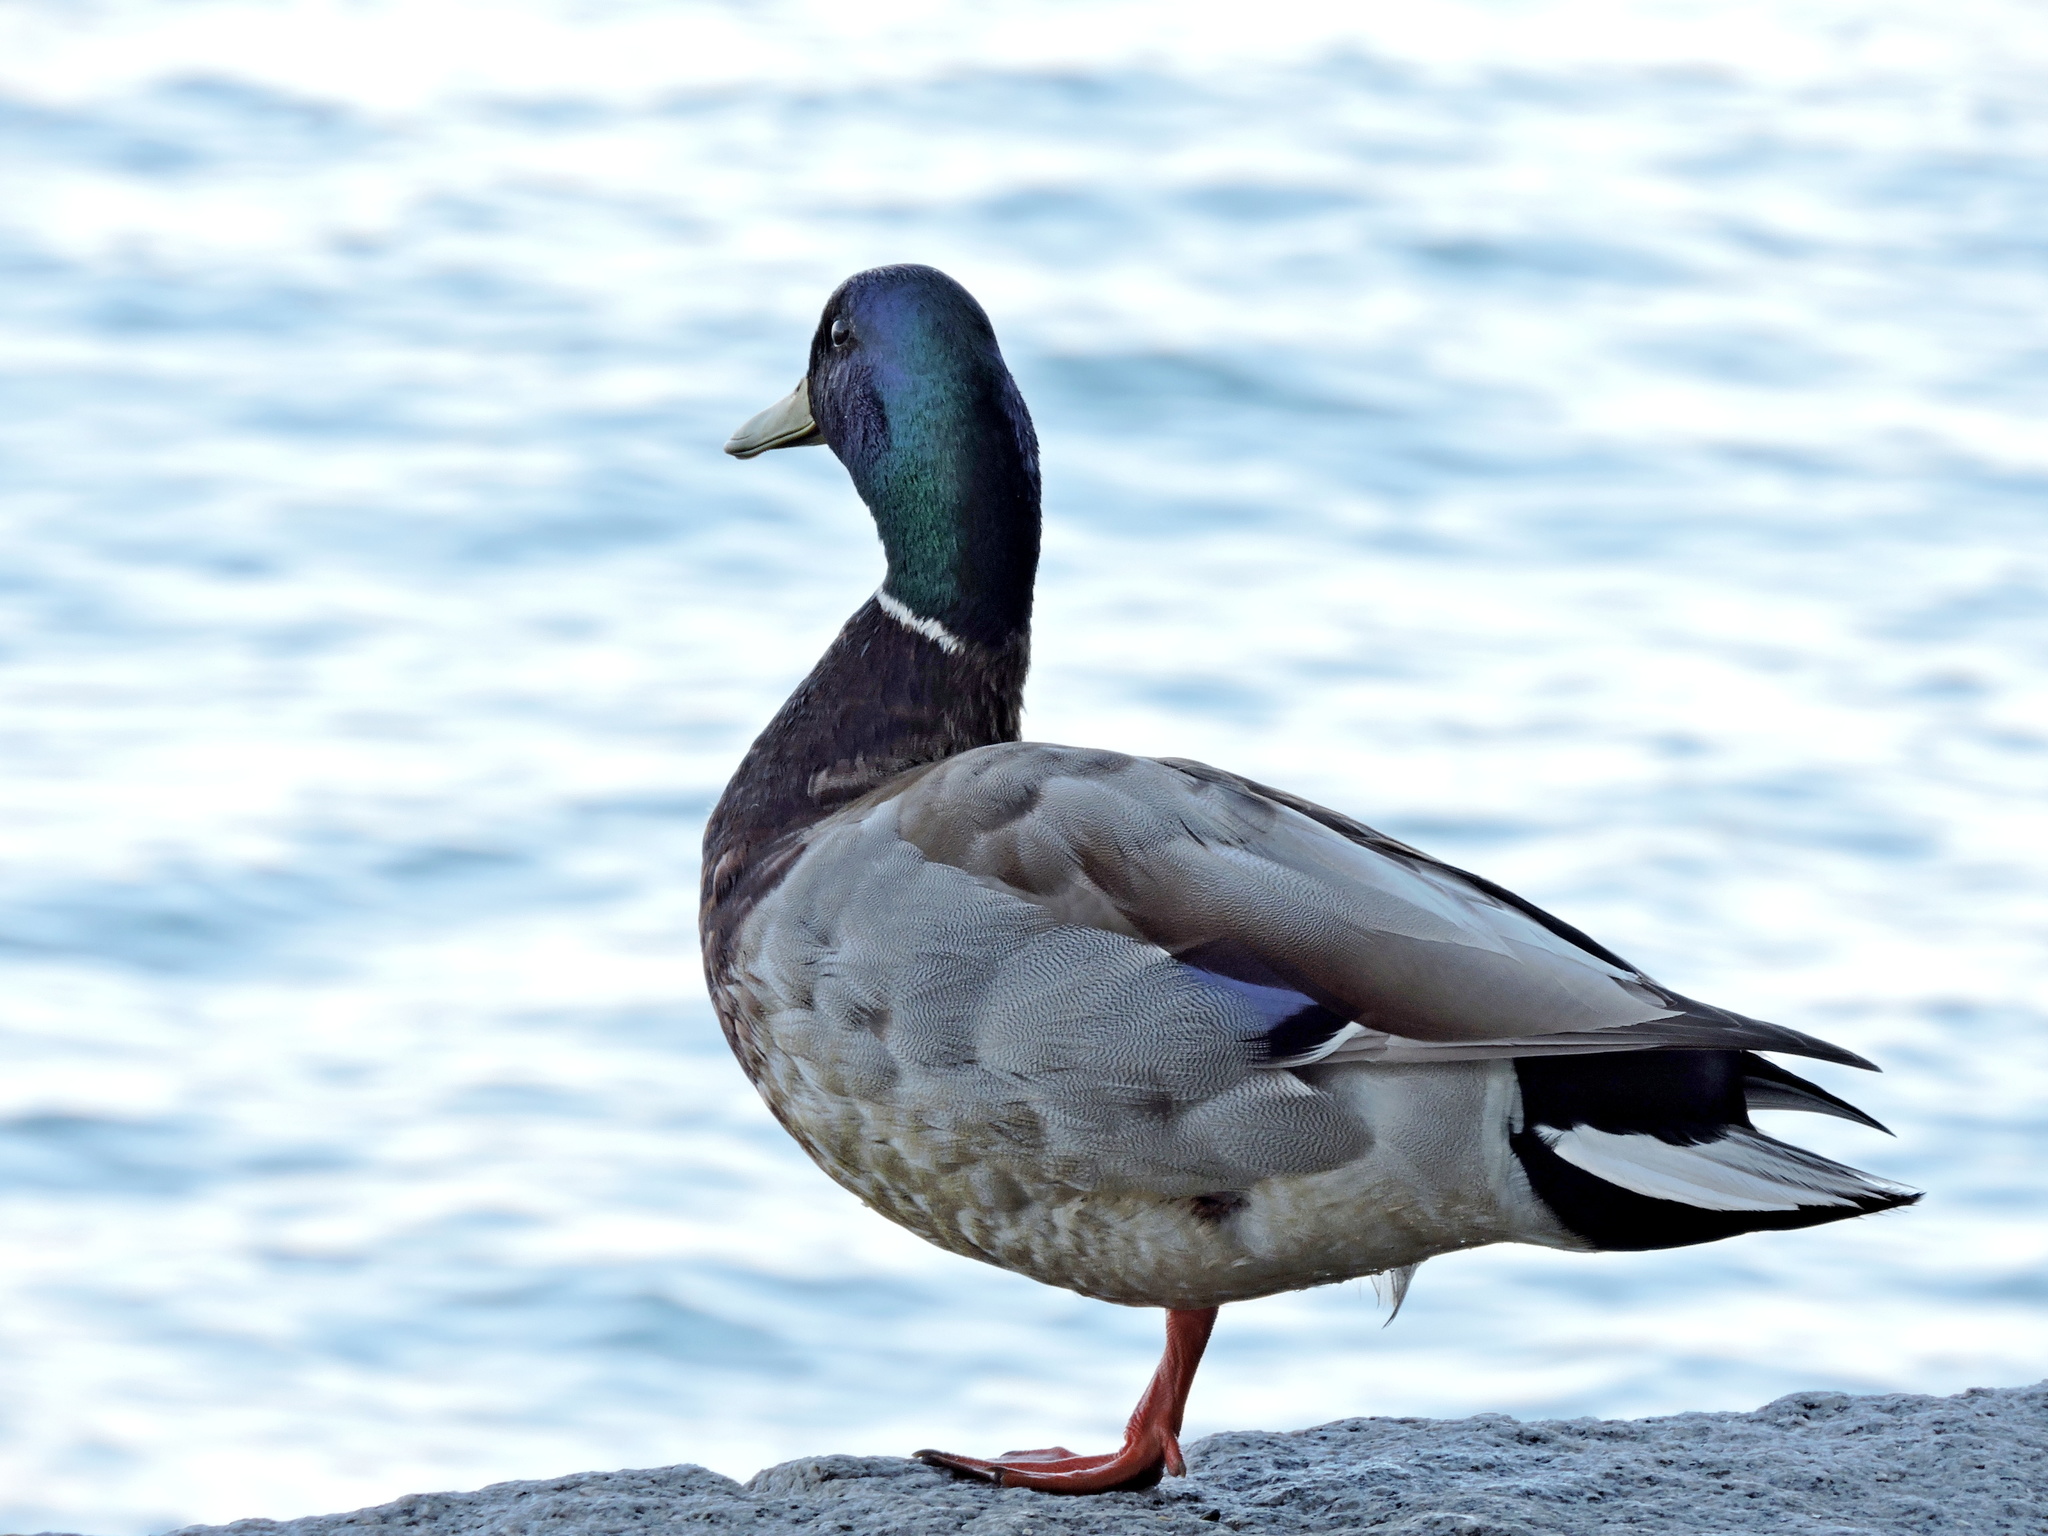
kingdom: Animalia
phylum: Chordata
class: Aves
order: Anseriformes
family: Anatidae
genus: Anas
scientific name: Anas platyrhynchos
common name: Mallard
